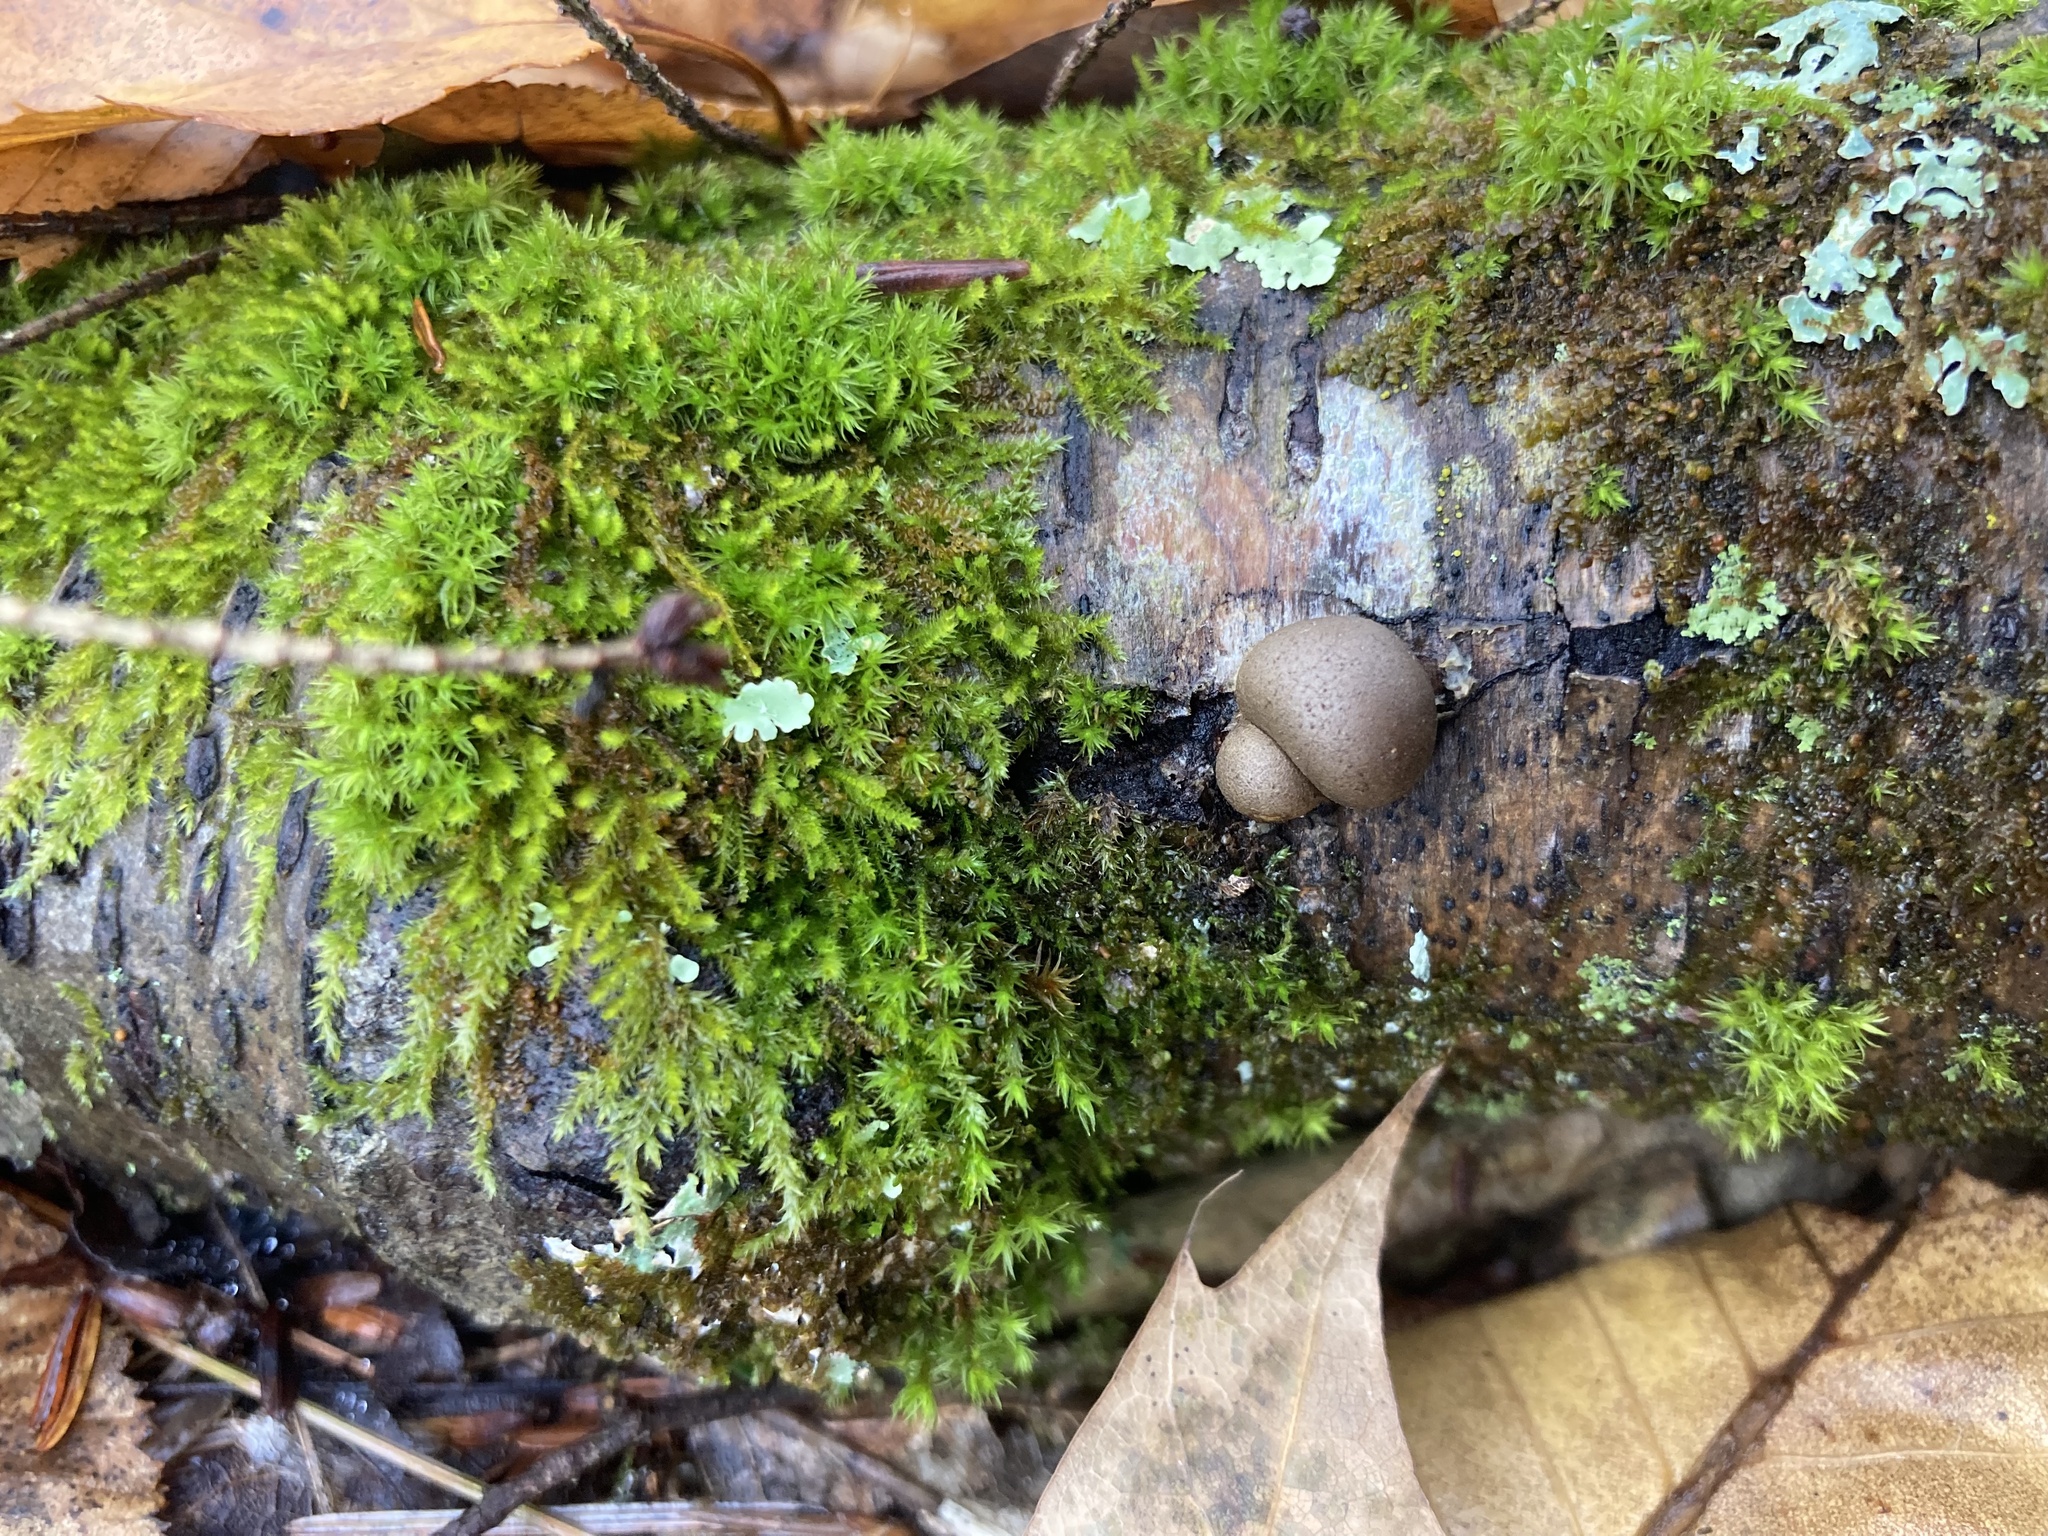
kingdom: Protozoa
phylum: Mycetozoa
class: Myxomycetes
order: Cribrariales
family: Tubiferaceae
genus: Lycogala
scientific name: Lycogala epidendrum
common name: Wolf's milk
